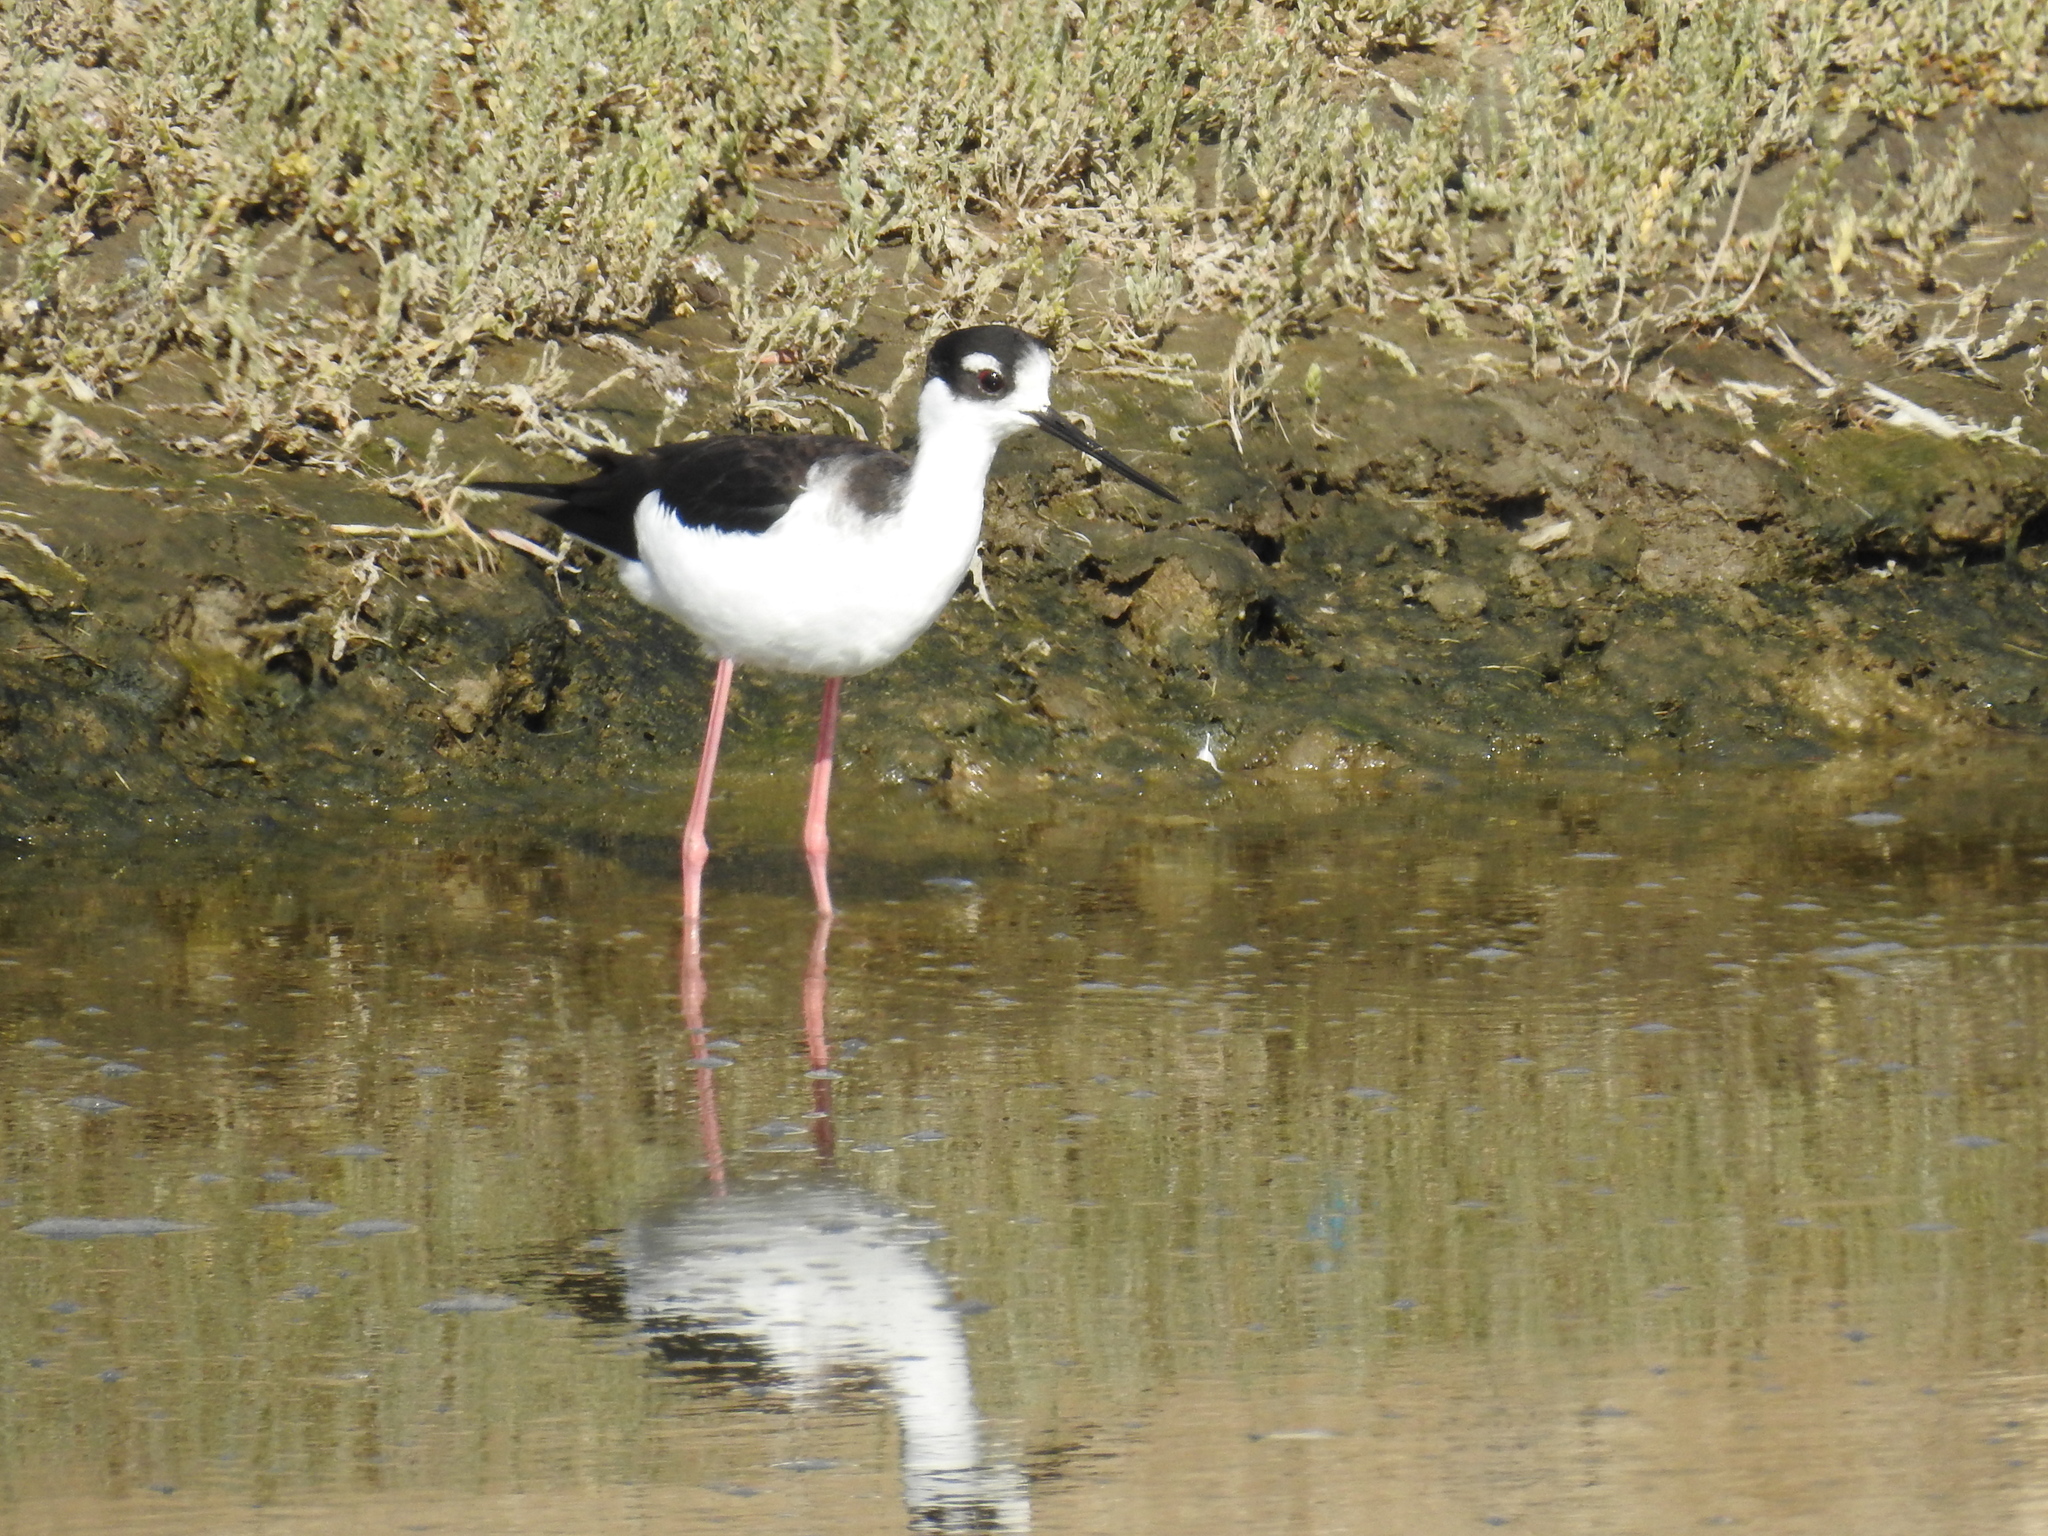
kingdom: Animalia
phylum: Chordata
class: Aves
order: Charadriiformes
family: Recurvirostridae
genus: Himantopus
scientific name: Himantopus mexicanus
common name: Black-necked stilt
